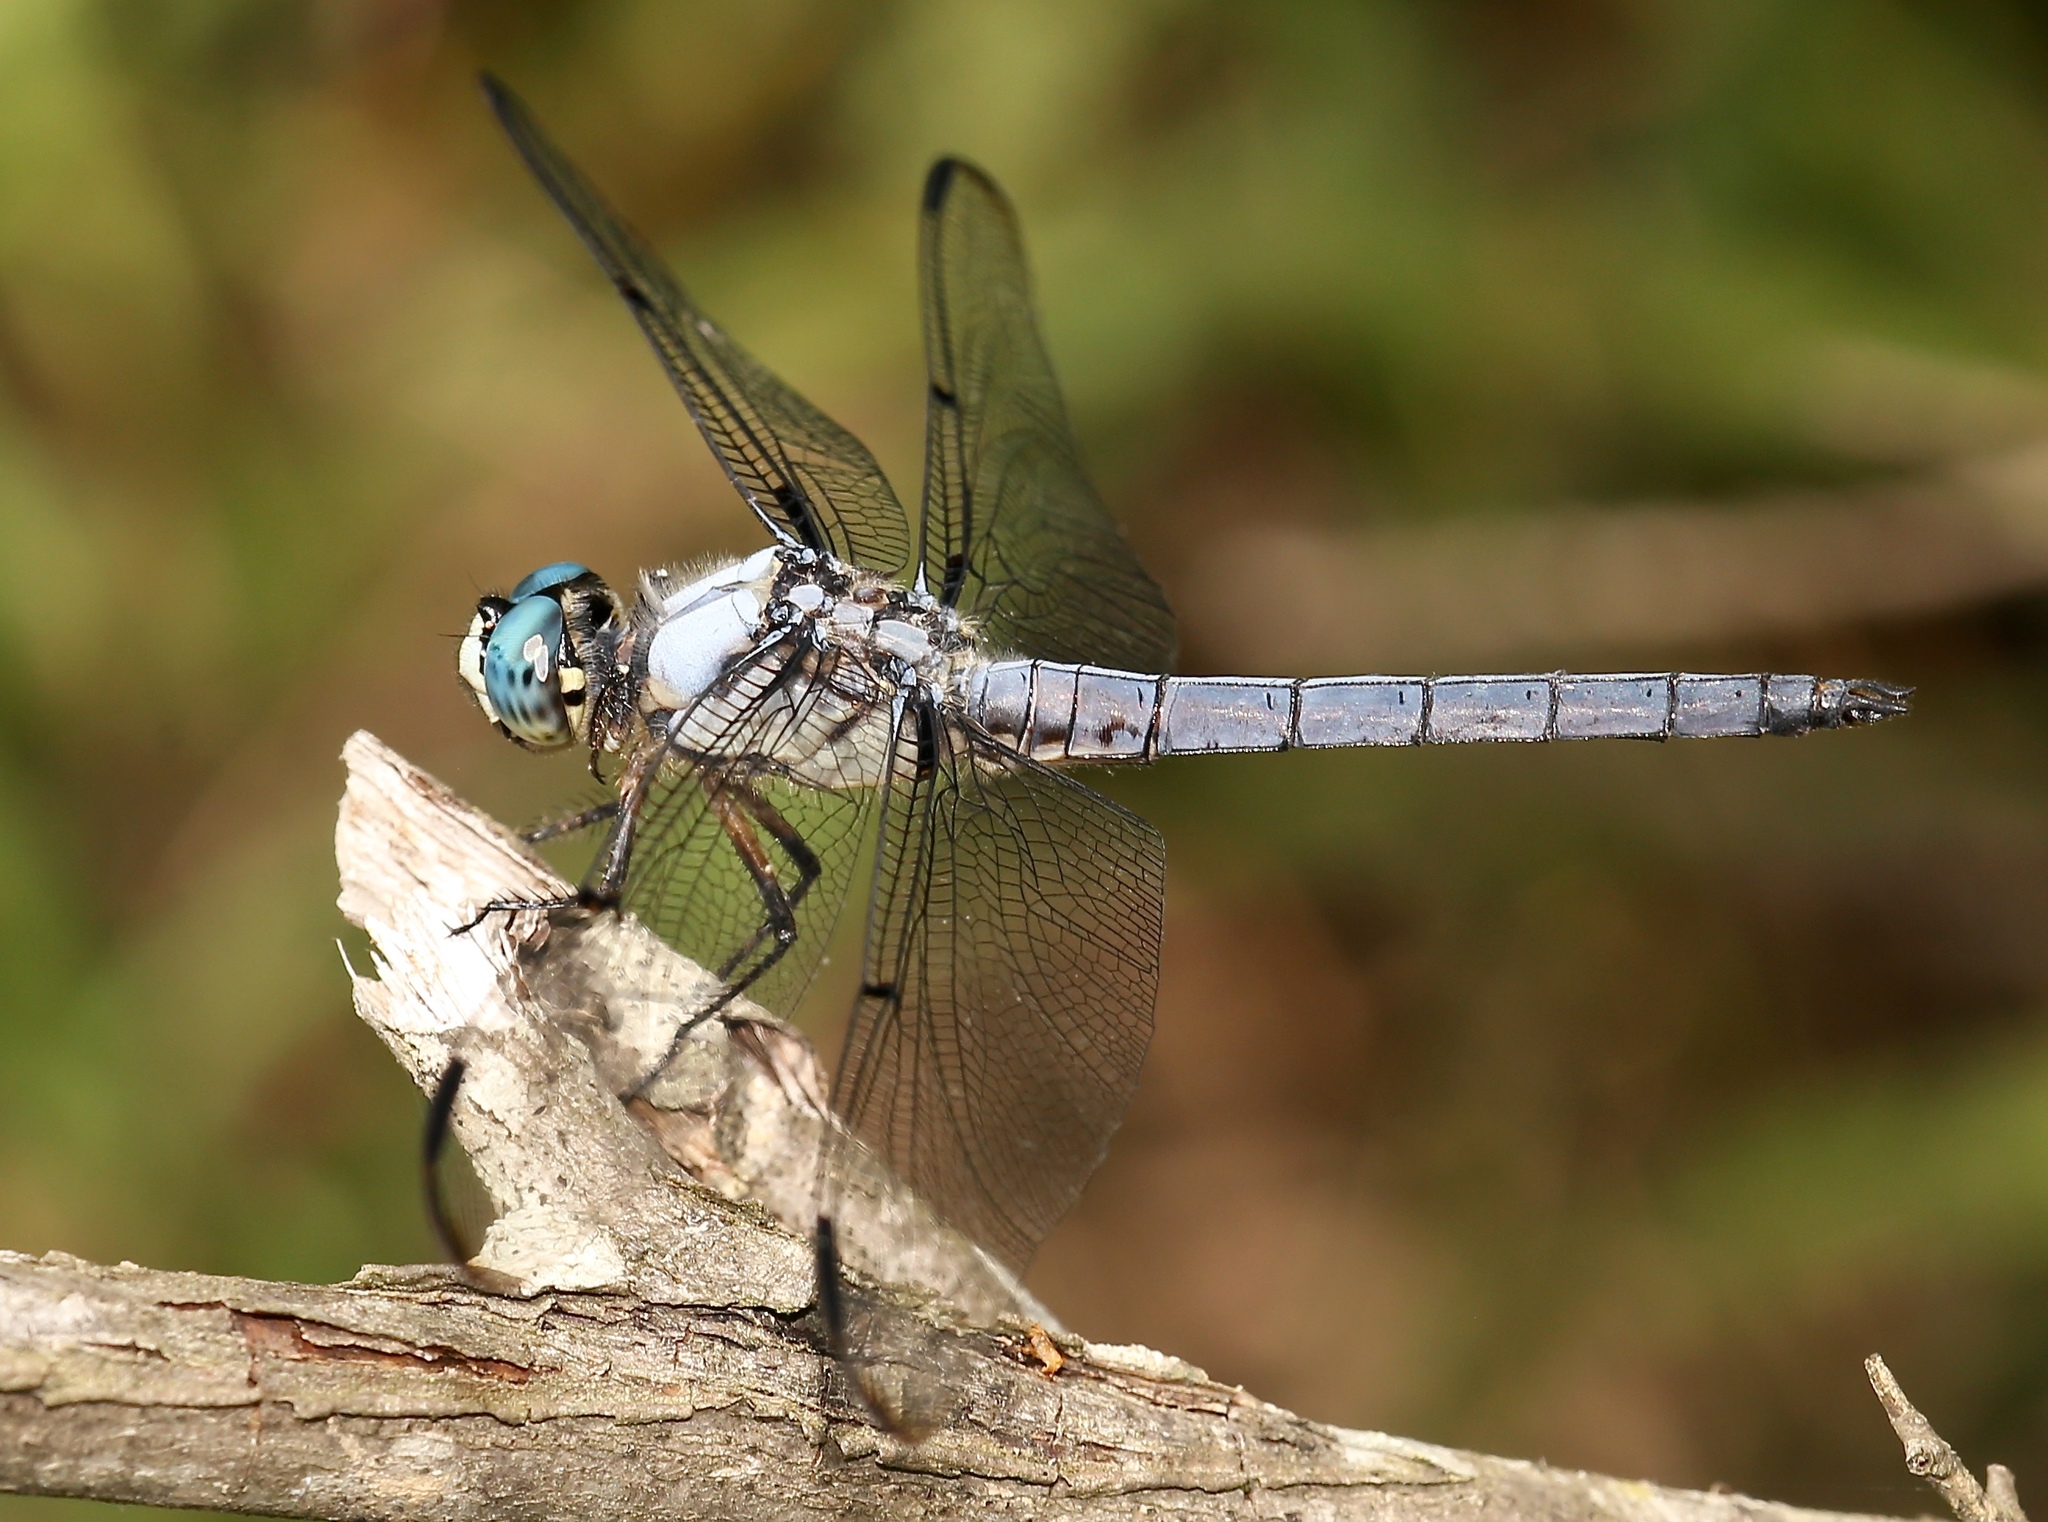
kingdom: Animalia
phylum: Arthropoda
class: Insecta
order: Odonata
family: Libellulidae
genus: Libellula
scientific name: Libellula vibrans
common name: Great blue skimmer
